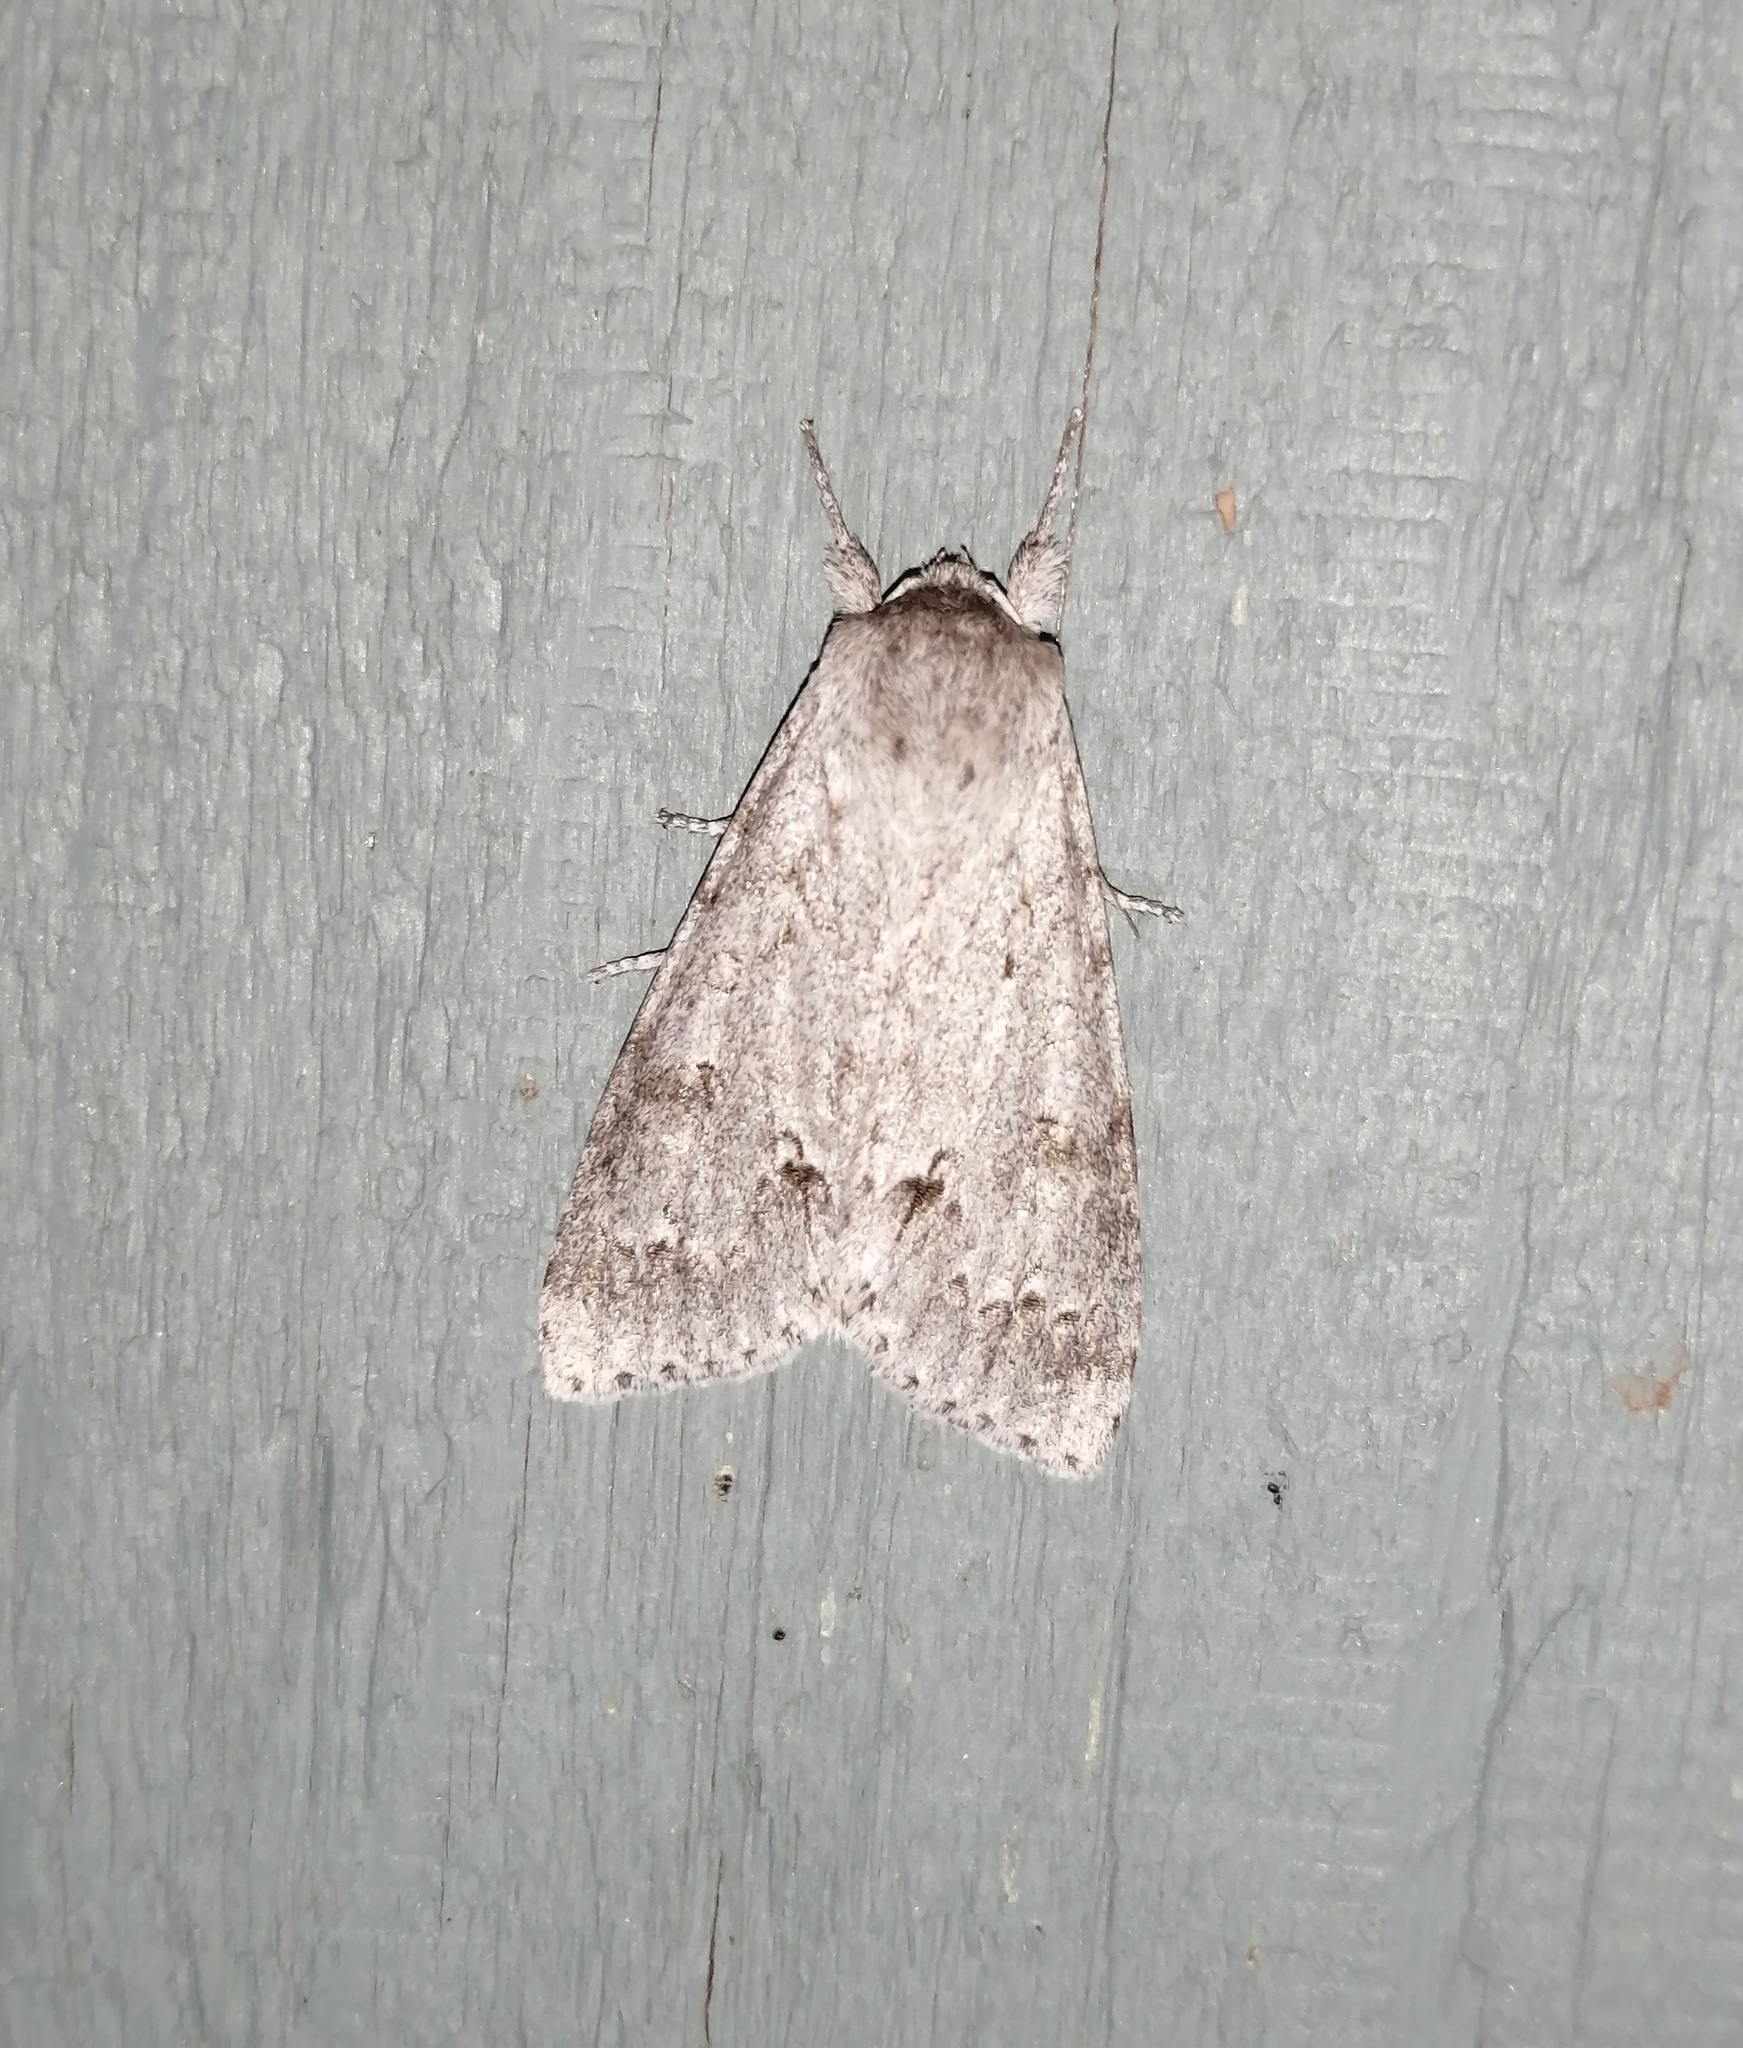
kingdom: Animalia
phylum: Arthropoda
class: Insecta
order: Lepidoptera
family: Noctuidae
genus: Acronicta
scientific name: Acronicta insita
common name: Large gray dagger
